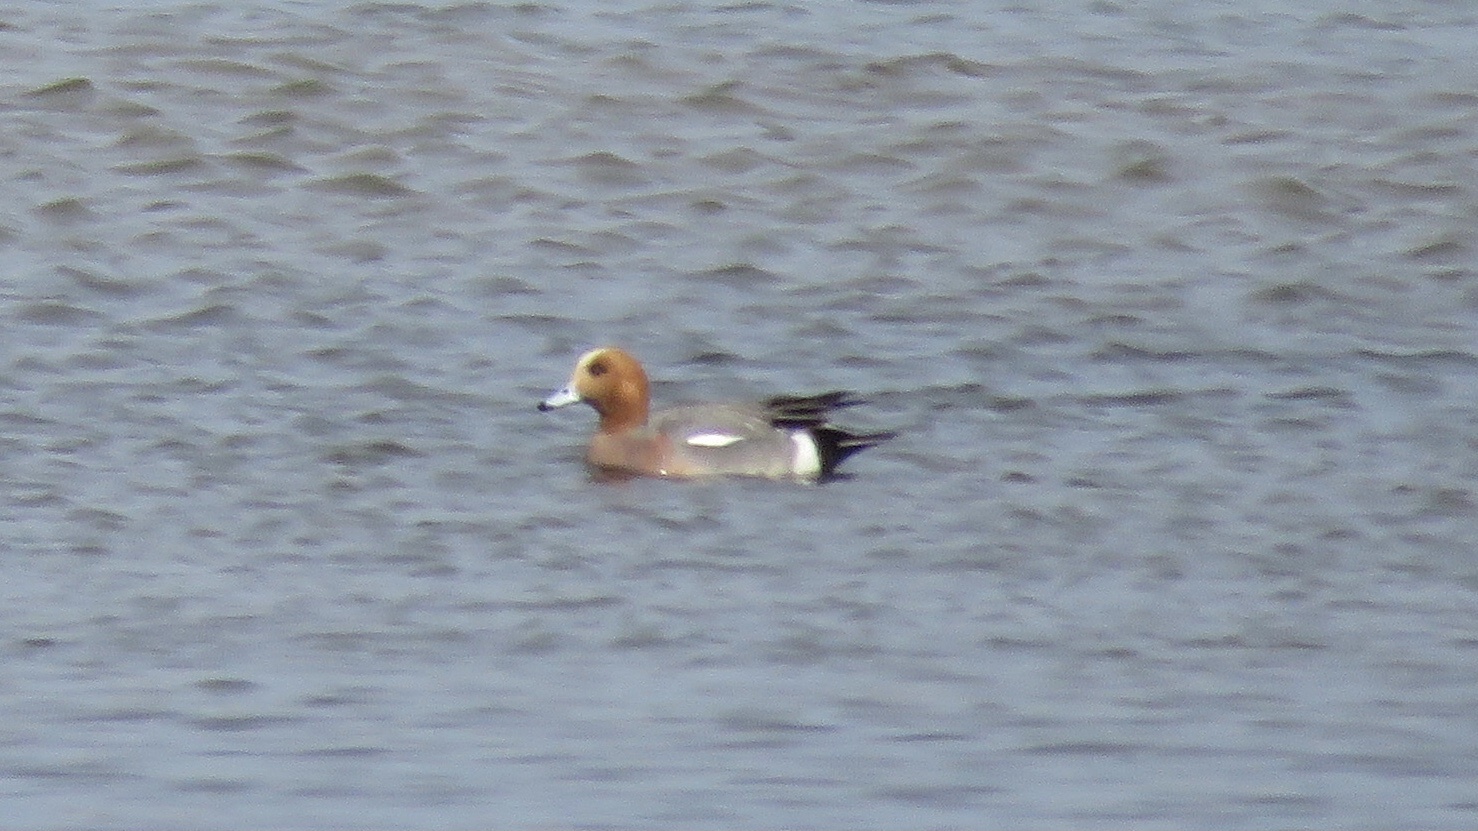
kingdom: Animalia
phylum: Chordata
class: Aves
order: Anseriformes
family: Anatidae
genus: Mareca
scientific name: Mareca penelope
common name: Eurasian wigeon
